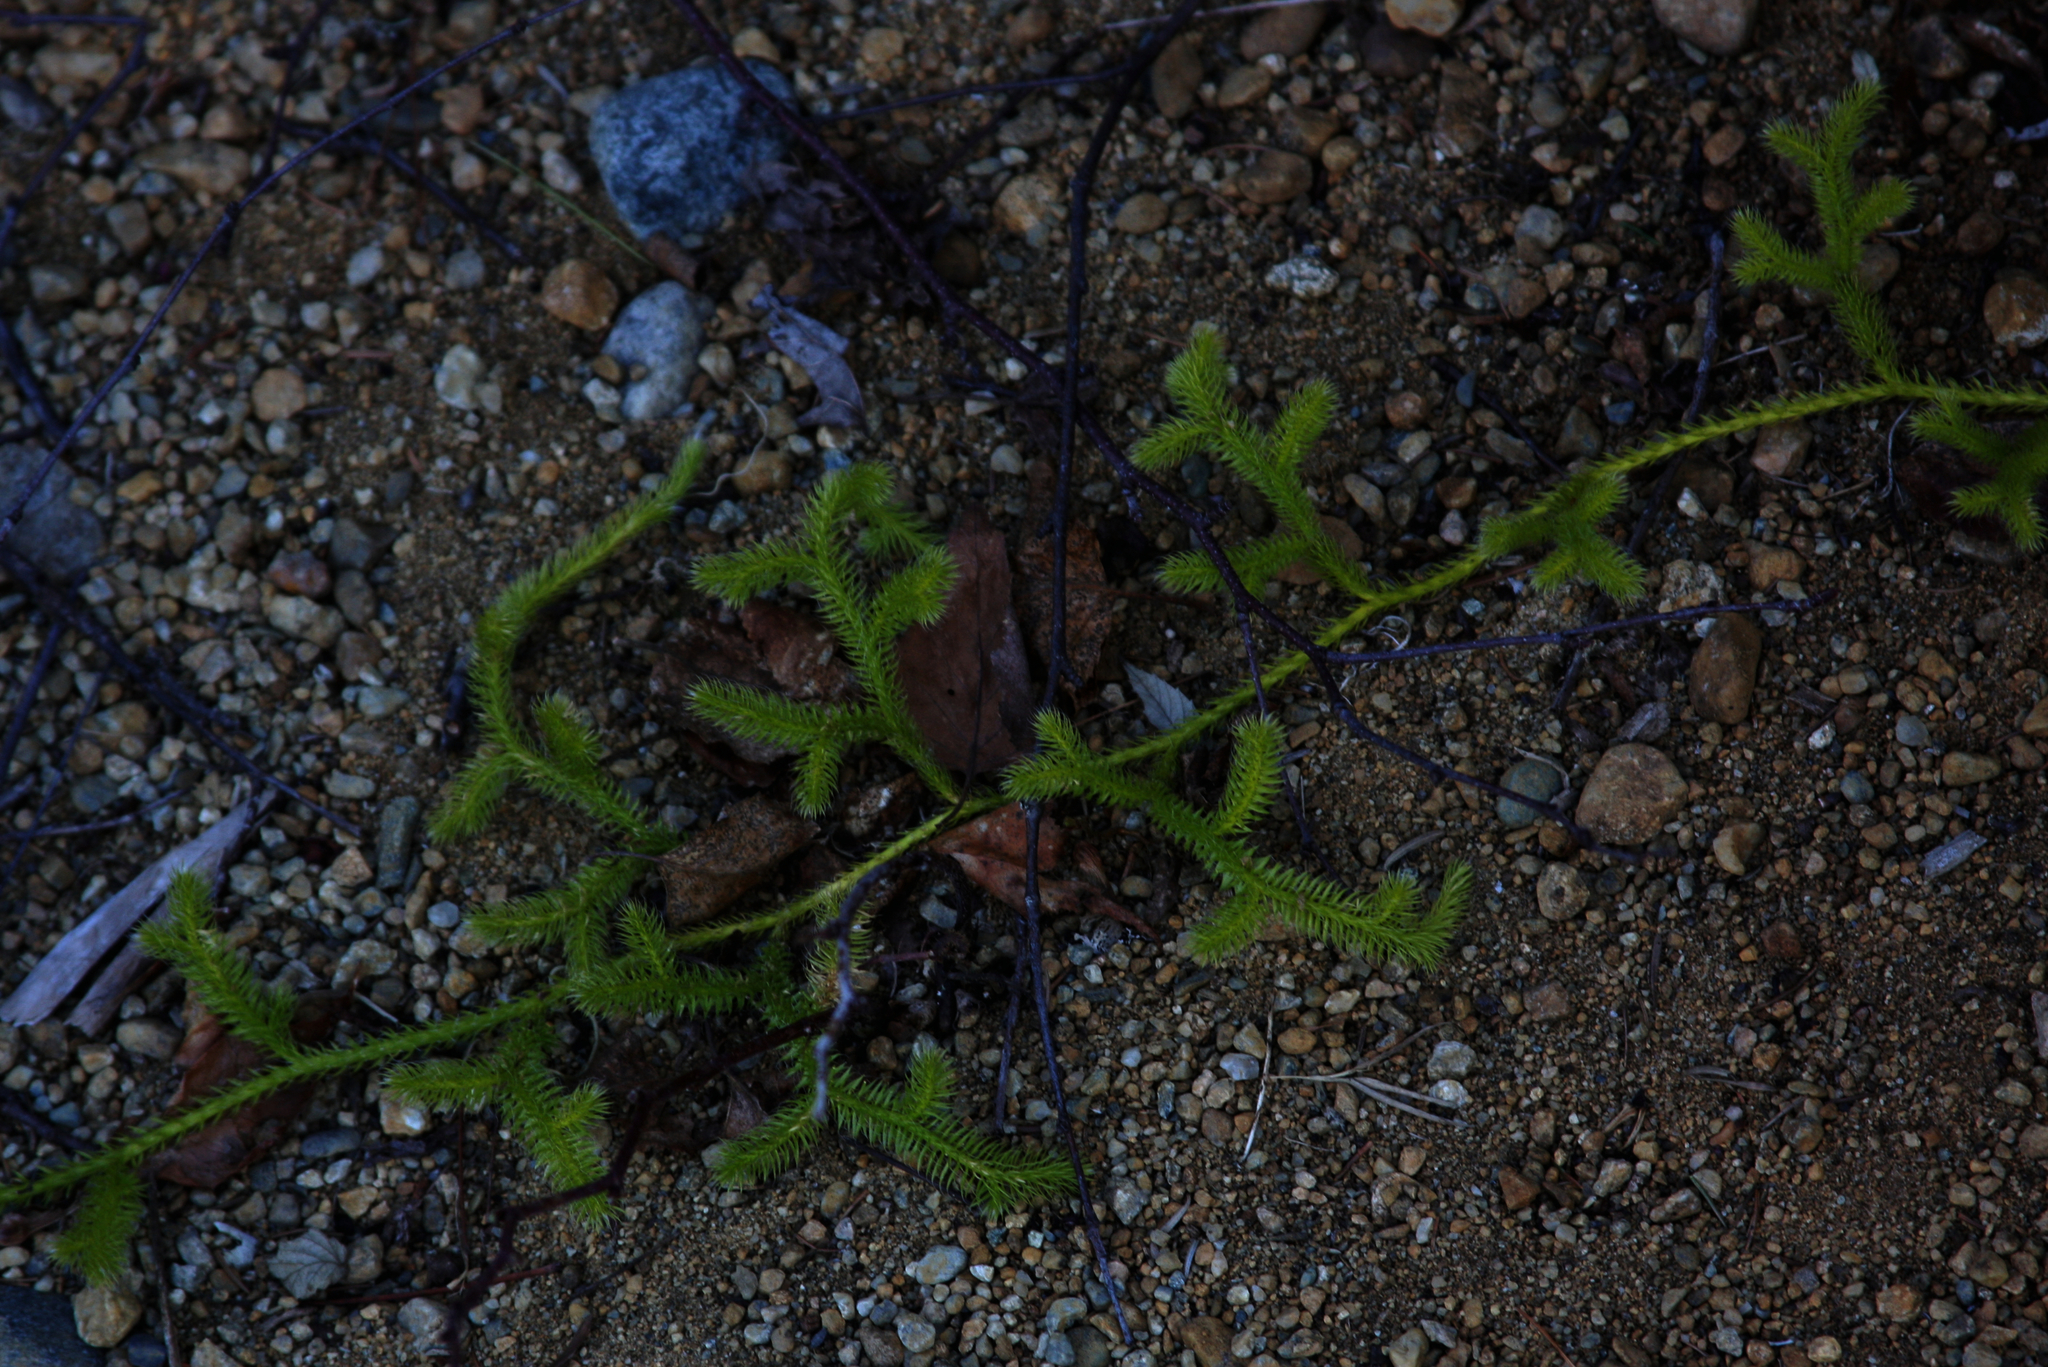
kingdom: Plantae
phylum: Tracheophyta
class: Lycopodiopsida
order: Lycopodiales
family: Lycopodiaceae
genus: Lycopodium
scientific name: Lycopodium clavatum
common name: Stag's-horn clubmoss
